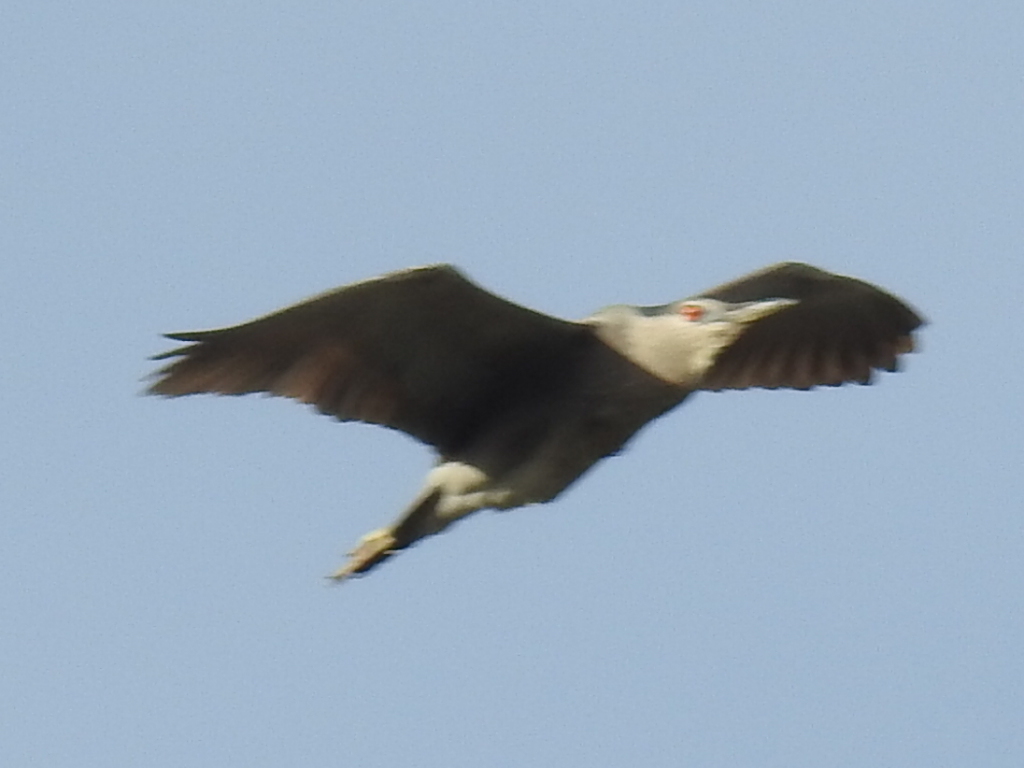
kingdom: Animalia
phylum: Chordata
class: Aves
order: Pelecaniformes
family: Ardeidae
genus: Nycticorax
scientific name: Nycticorax nycticorax
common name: Black-crowned night heron
